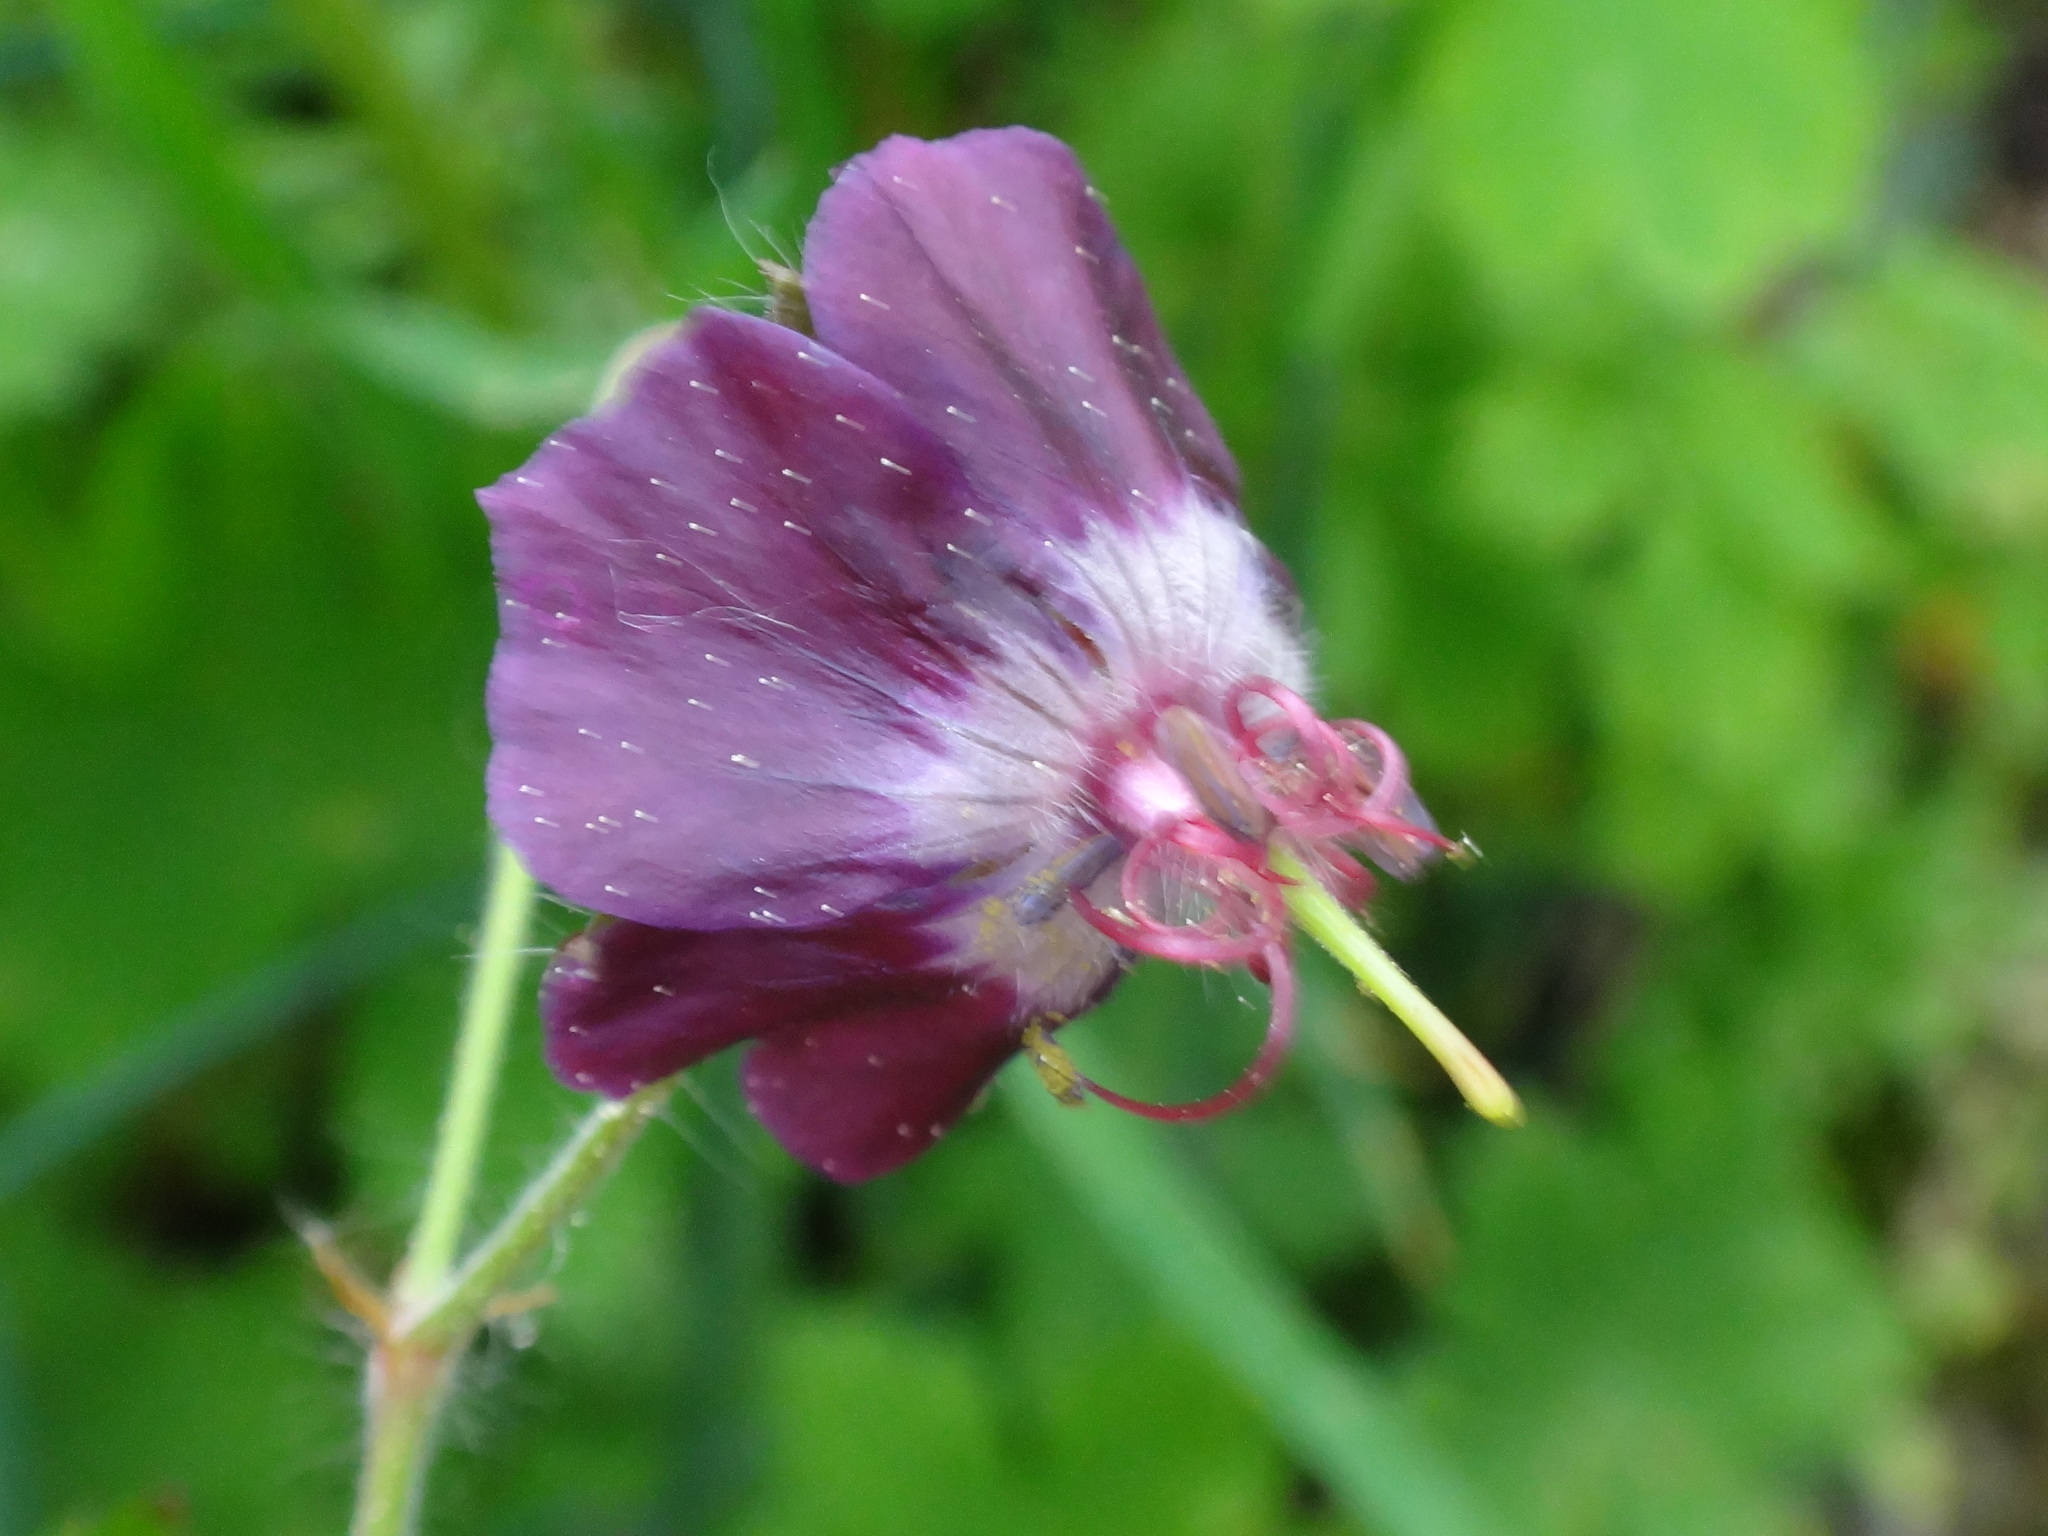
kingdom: Plantae
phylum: Tracheophyta
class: Magnoliopsida
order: Geraniales
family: Geraniaceae
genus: Geranium
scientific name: Geranium phaeum
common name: Dusky crane's-bill
